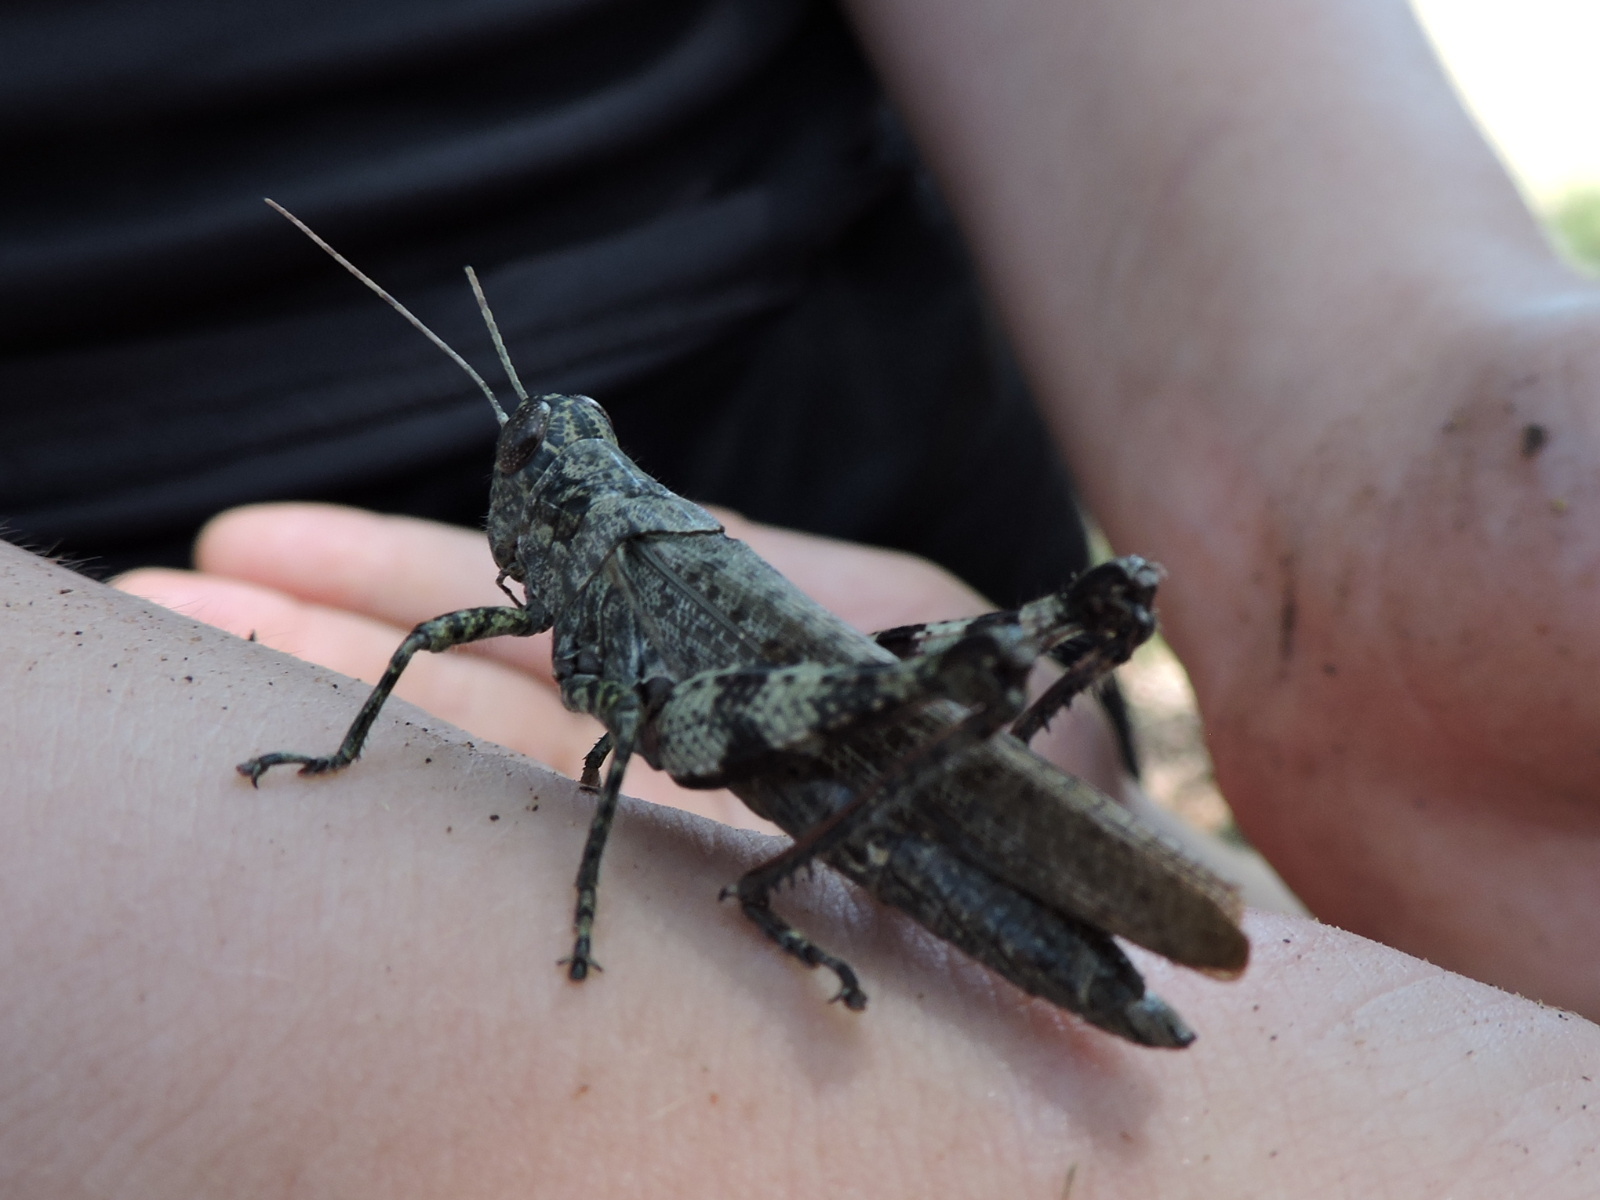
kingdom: Animalia
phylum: Arthropoda
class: Insecta
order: Orthoptera
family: Acrididae
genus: Melanoplus
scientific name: Melanoplus punctulatus
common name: Pine-tree spur-throat grasshopper
